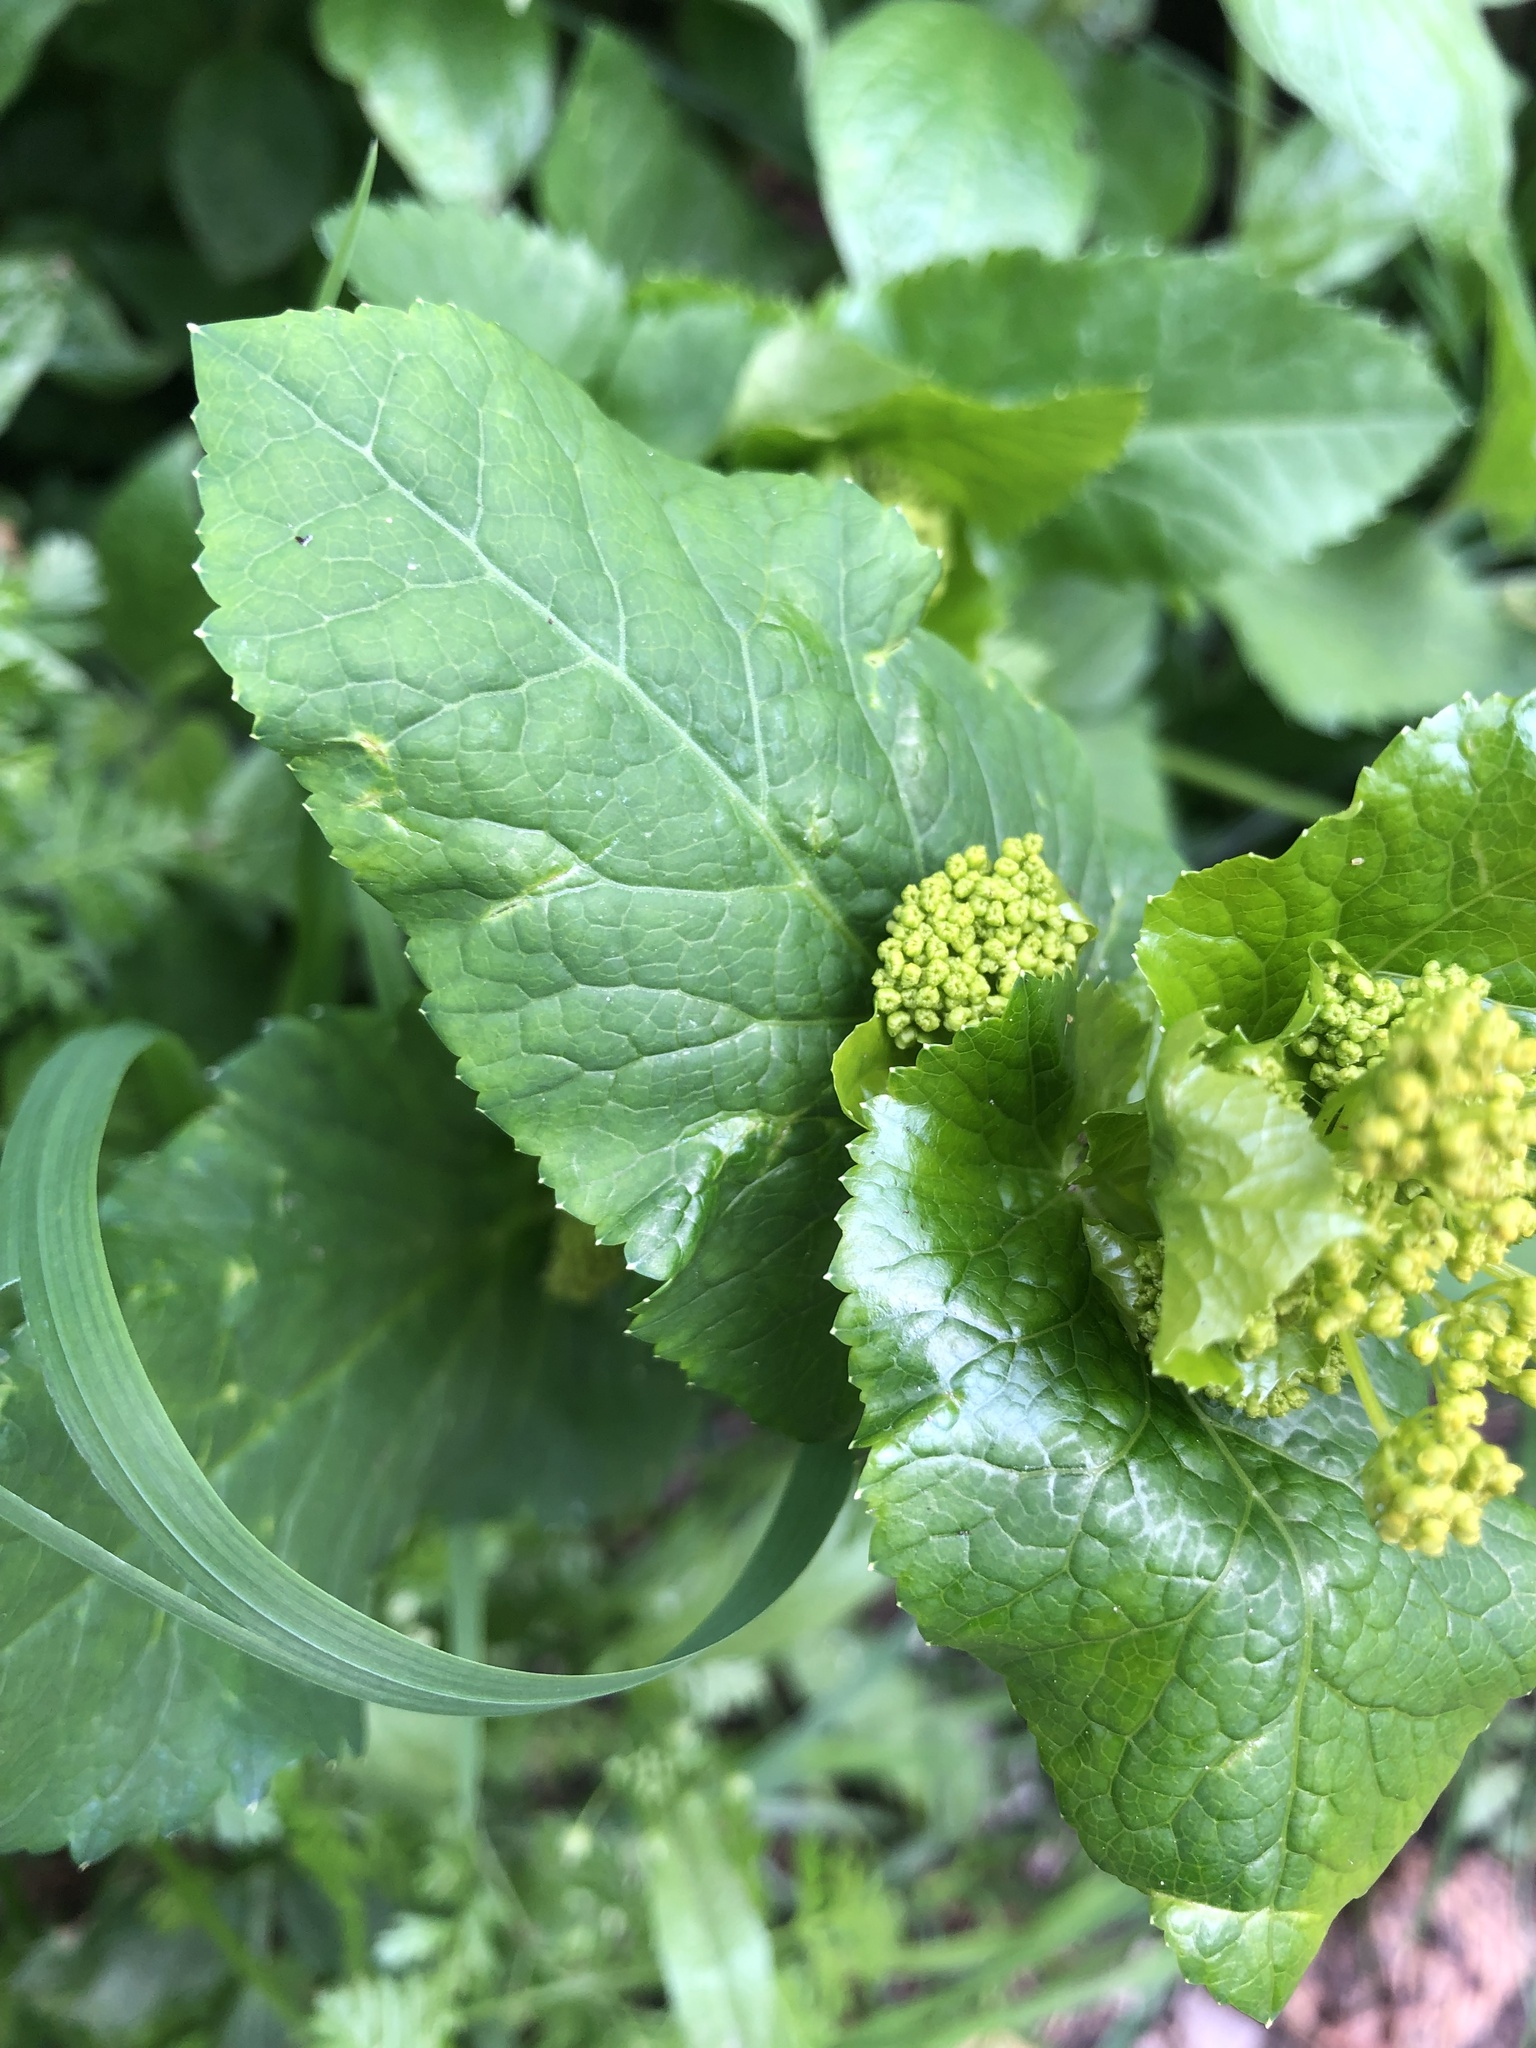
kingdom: Plantae
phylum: Tracheophyta
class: Magnoliopsida
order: Apiales
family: Apiaceae
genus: Smyrnium
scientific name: Smyrnium perfoliatum
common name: Perfoliate alexanders
